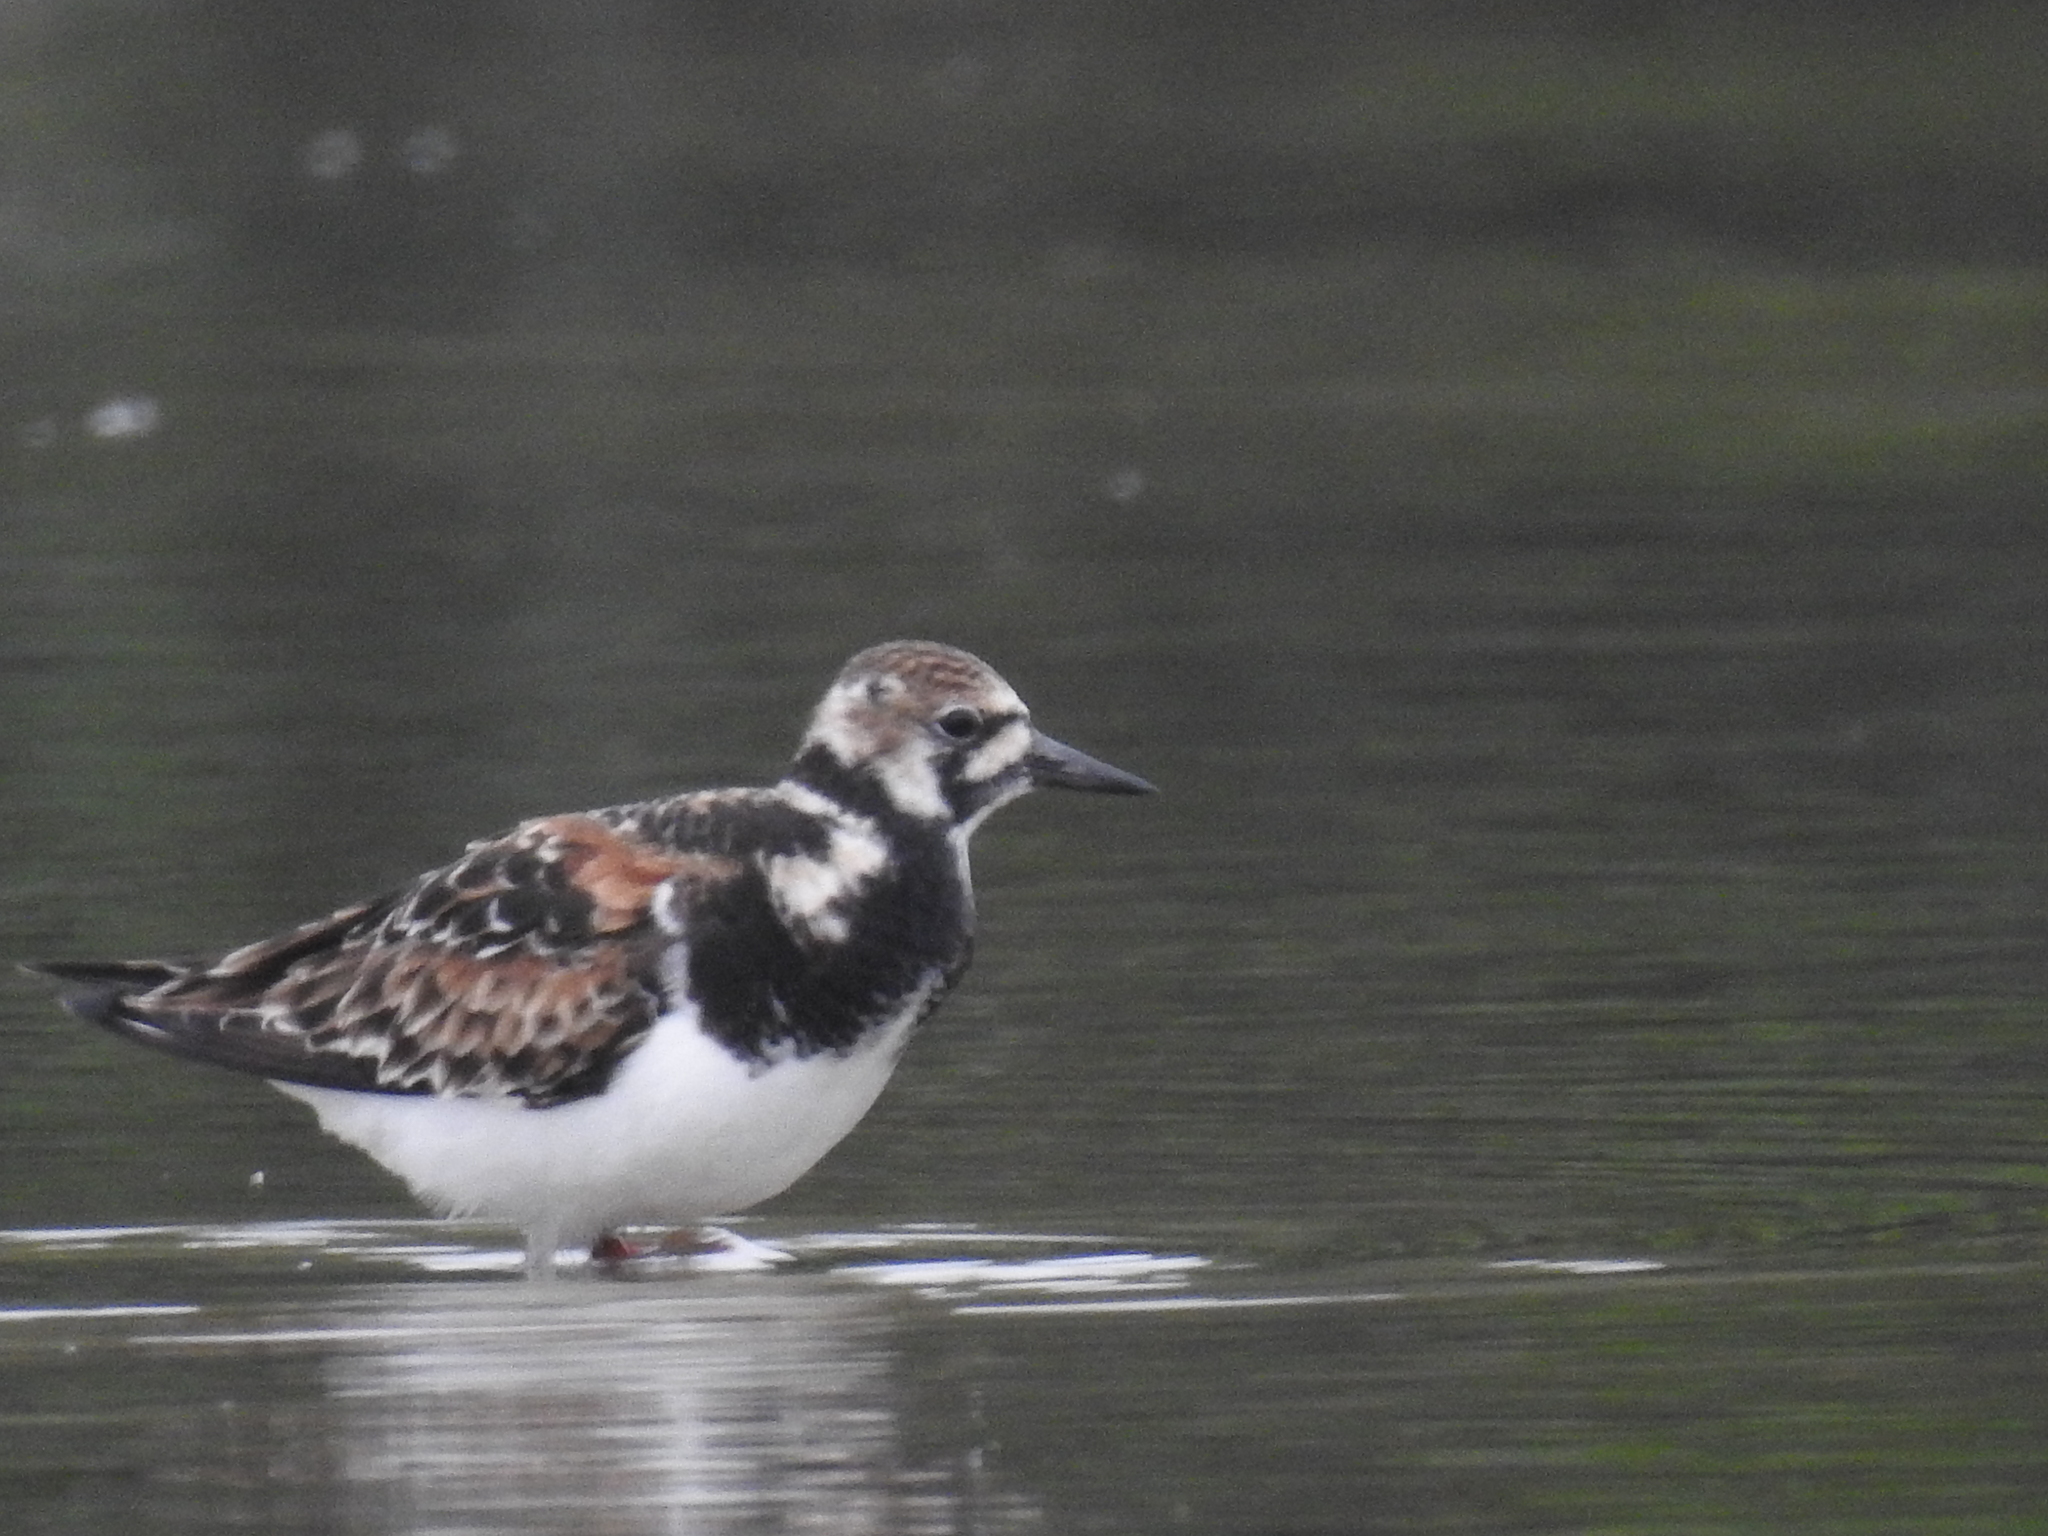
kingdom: Animalia
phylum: Chordata
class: Aves
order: Charadriiformes
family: Scolopacidae
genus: Arenaria
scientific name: Arenaria interpres
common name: Ruddy turnstone
